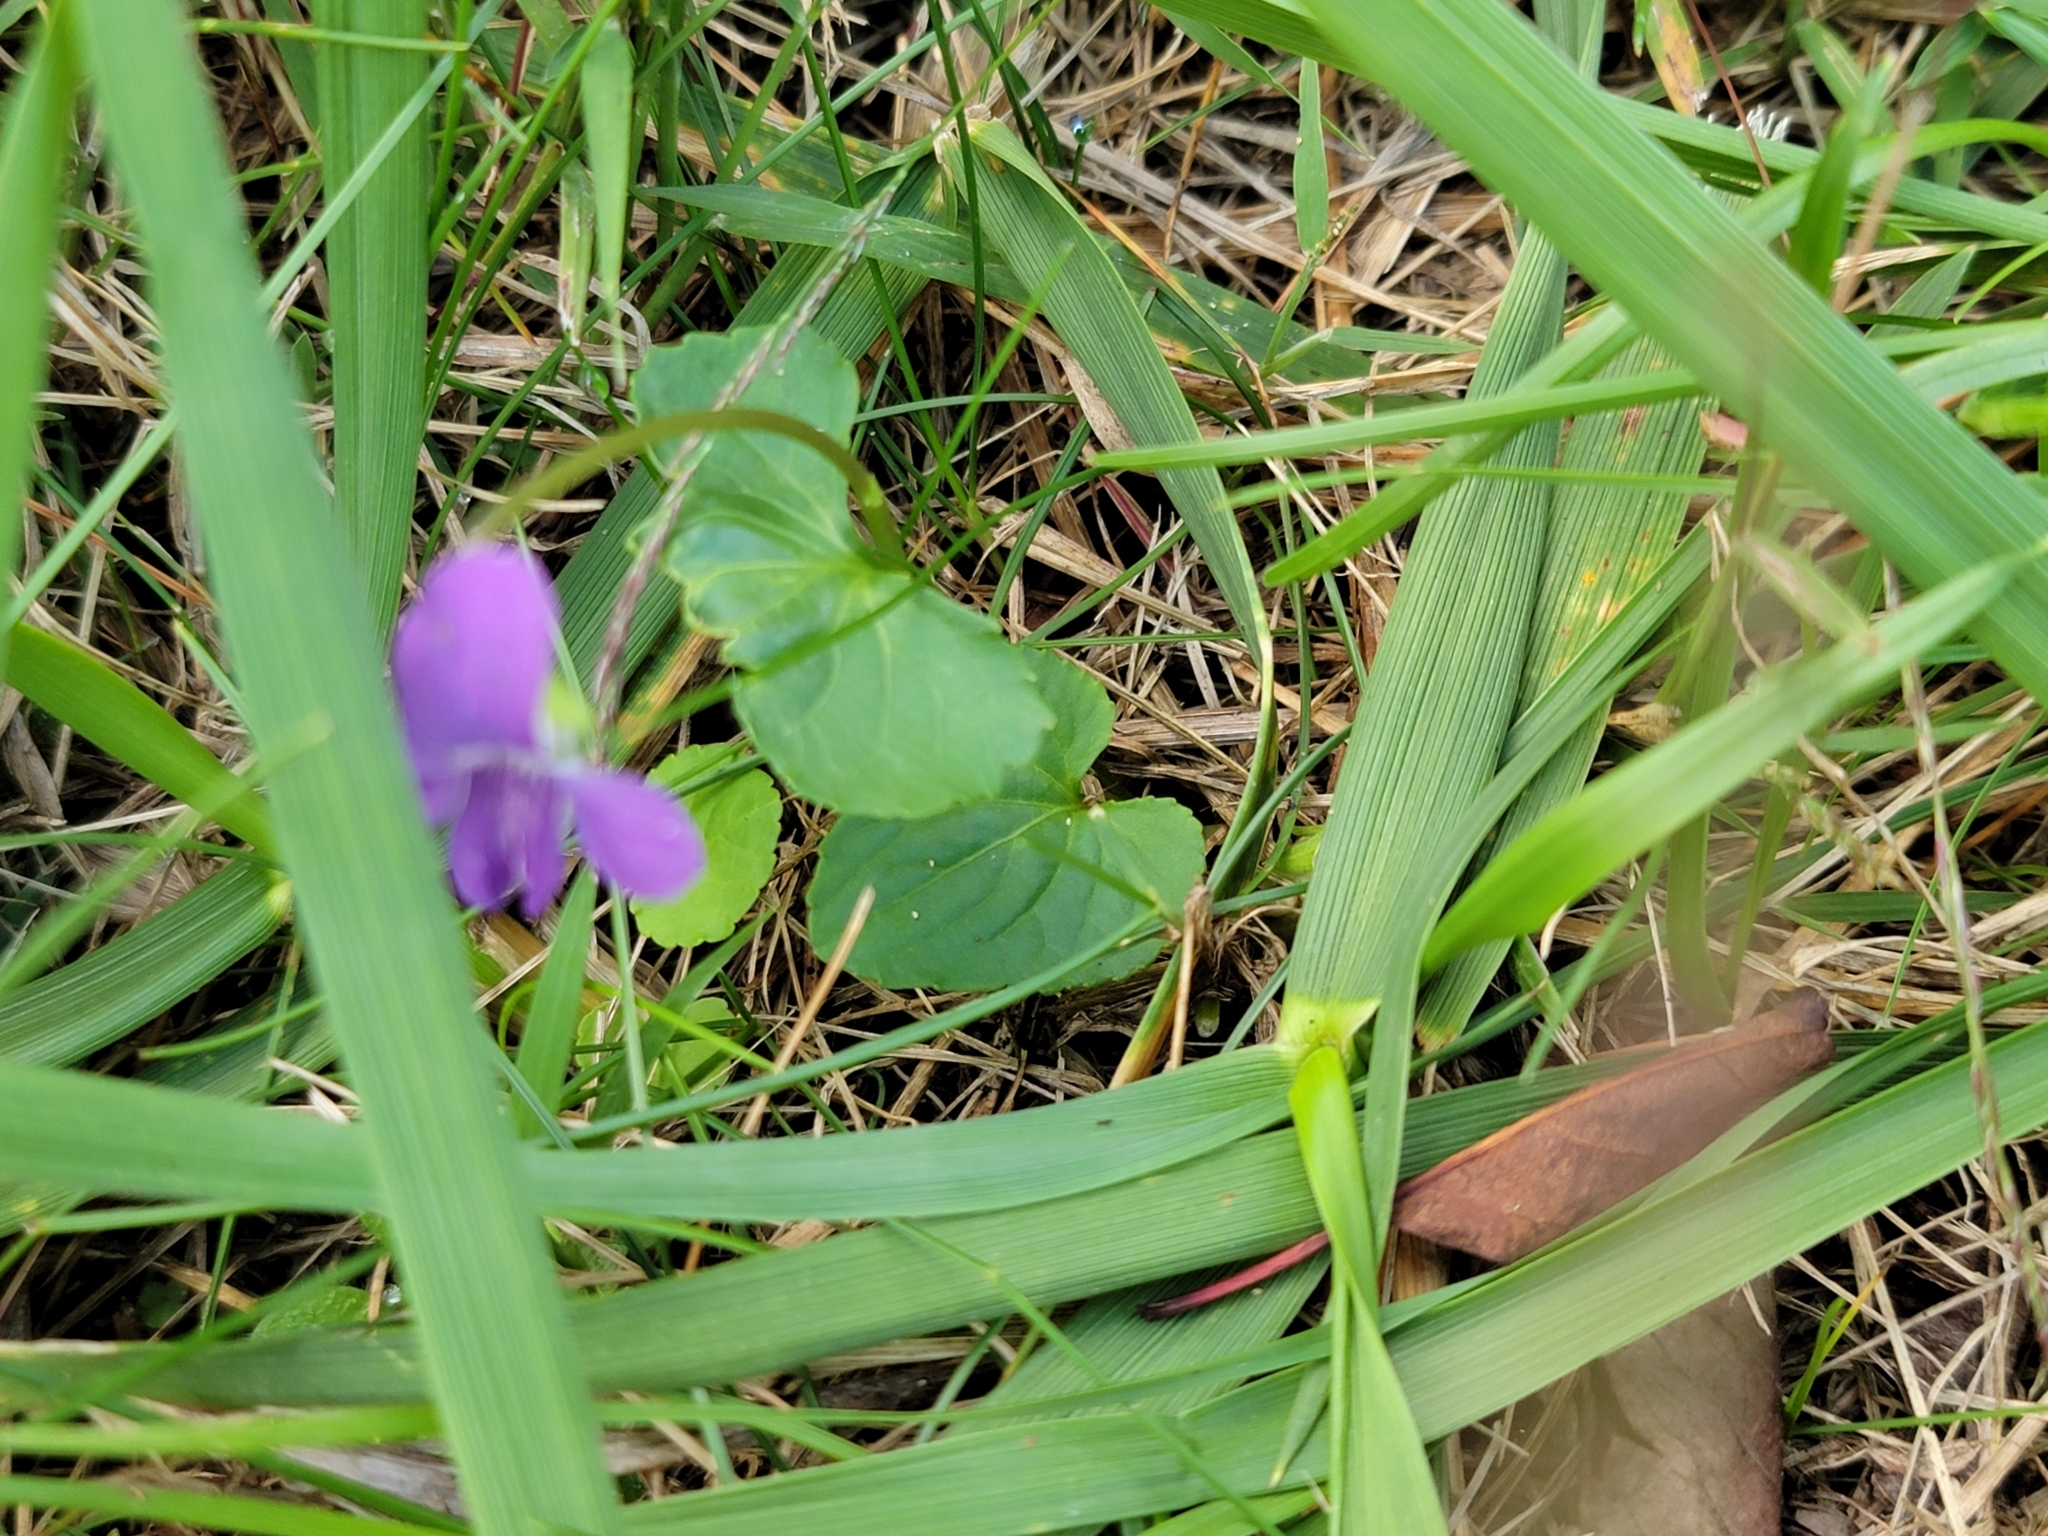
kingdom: Plantae
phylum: Tracheophyta
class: Magnoliopsida
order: Malpighiales
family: Violaceae
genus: Viola
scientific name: Viola sororia
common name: Dooryard violet
